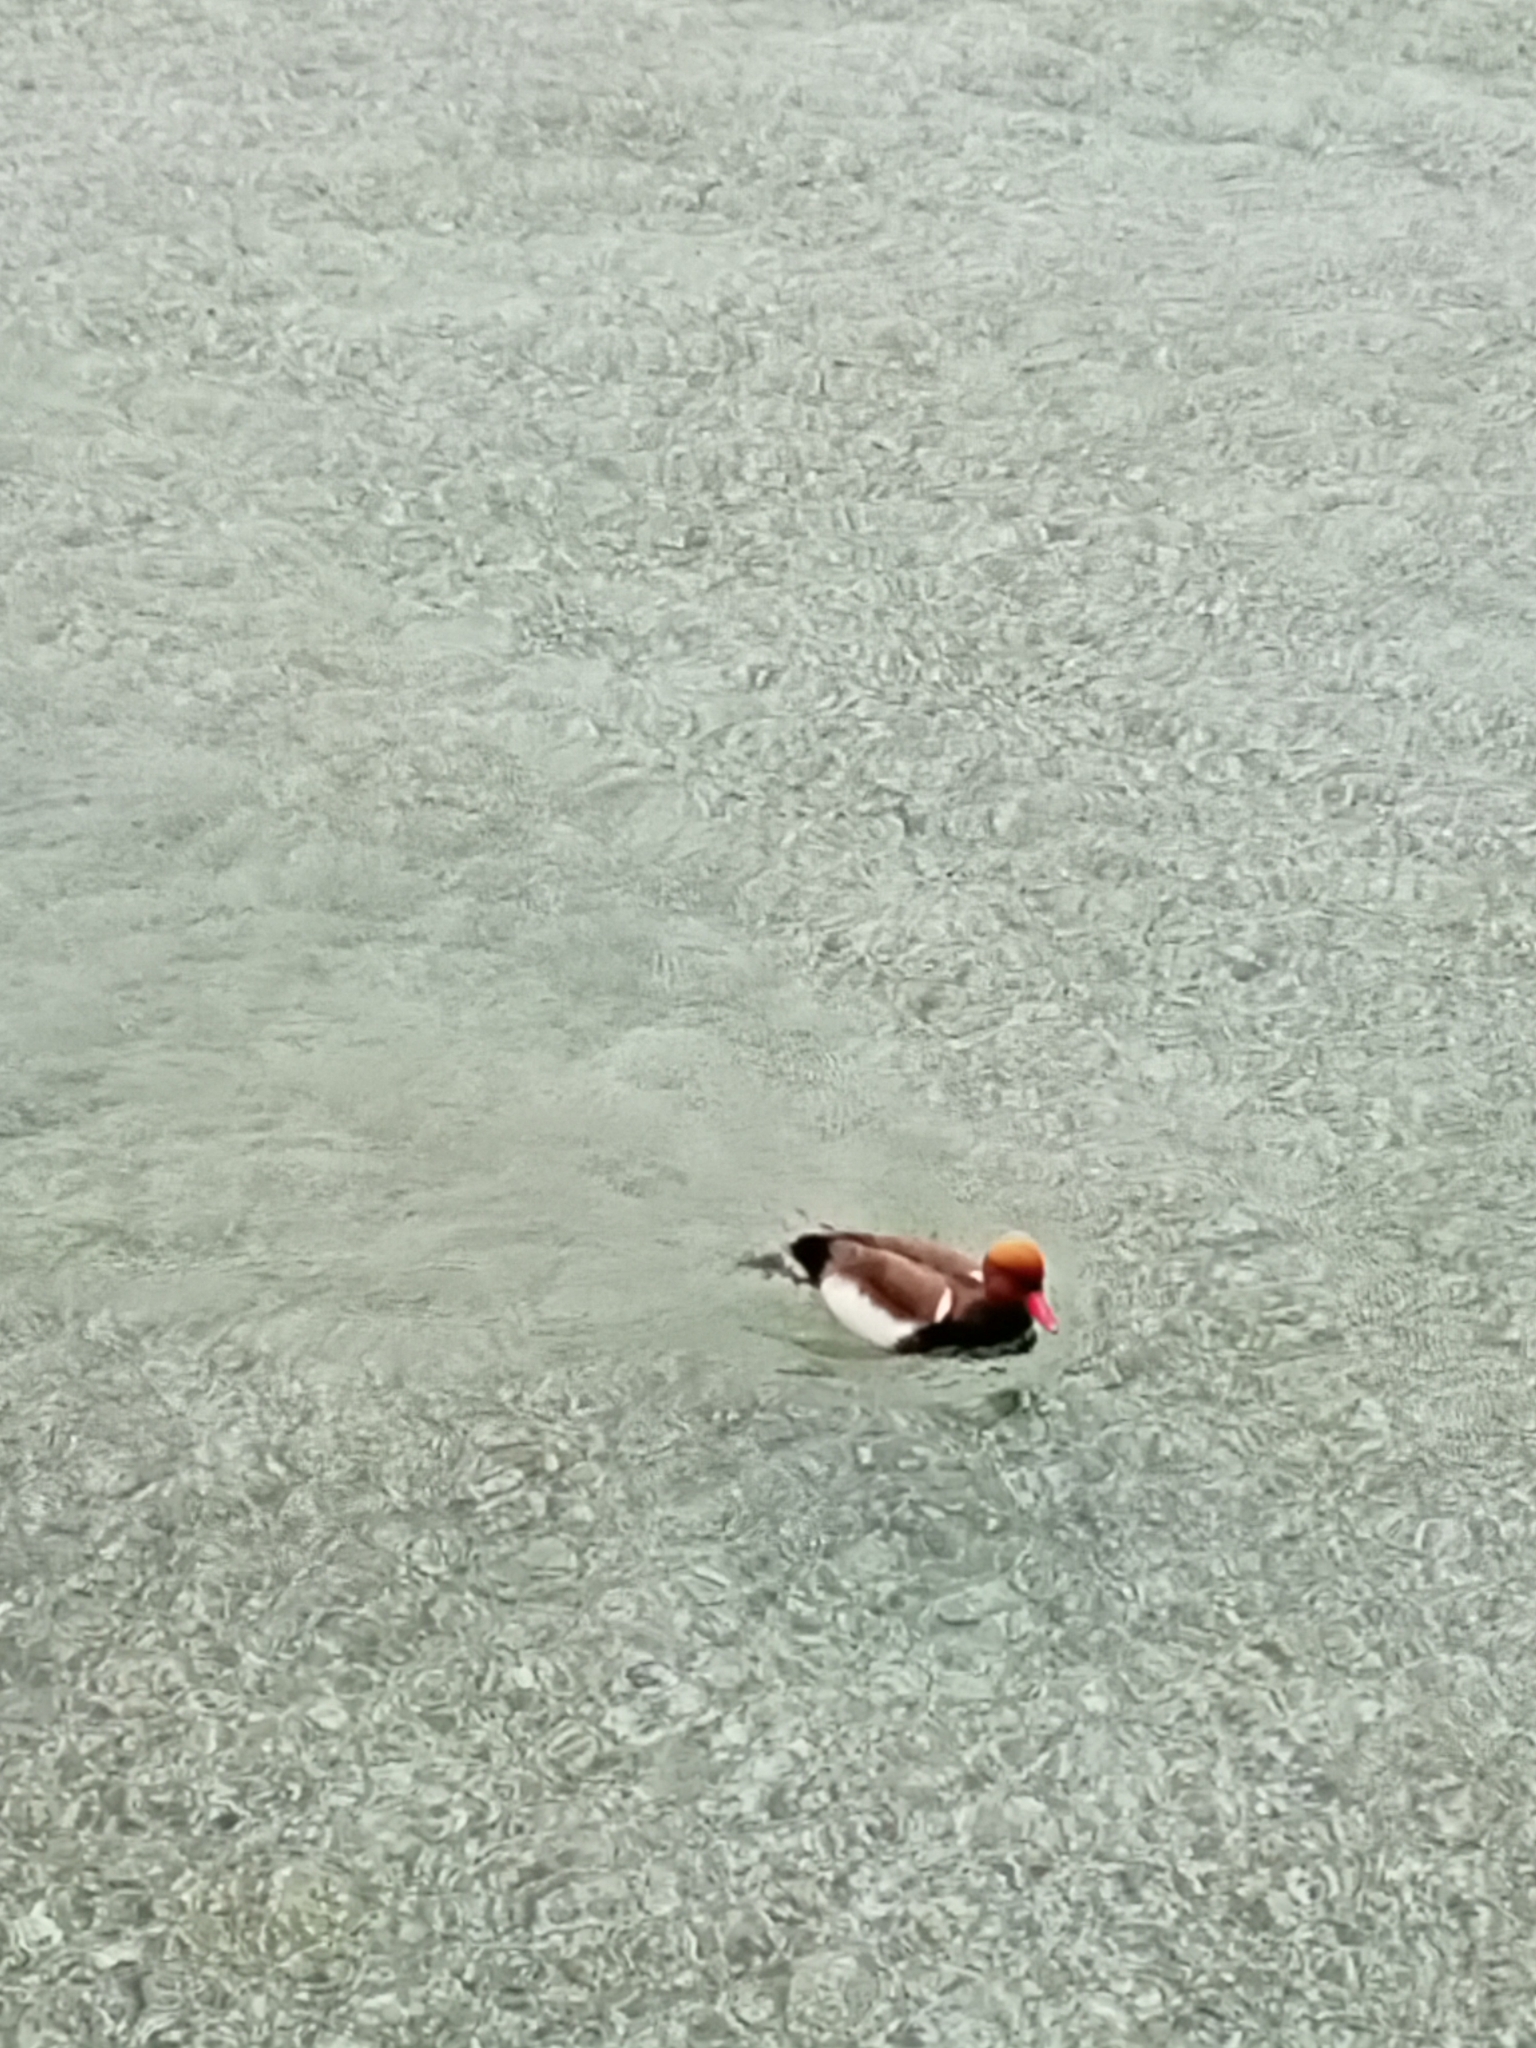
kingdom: Animalia
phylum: Chordata
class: Aves
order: Anseriformes
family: Anatidae
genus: Netta
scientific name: Netta rufina
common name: Red-crested pochard
